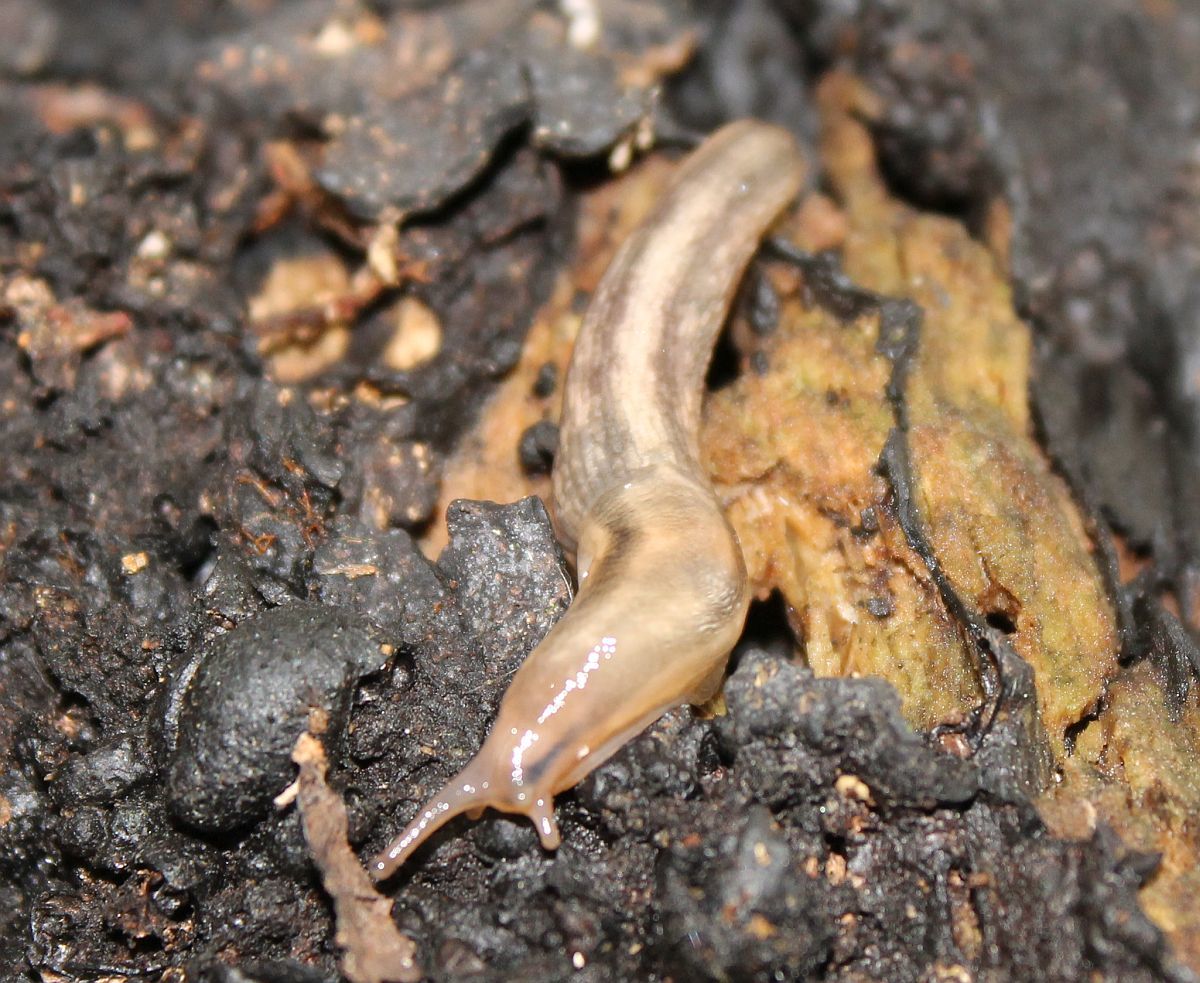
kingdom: Animalia
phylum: Mollusca
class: Gastropoda
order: Stylommatophora
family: Limacidae
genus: Lehmannia
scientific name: Lehmannia marginata
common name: Tree slug
